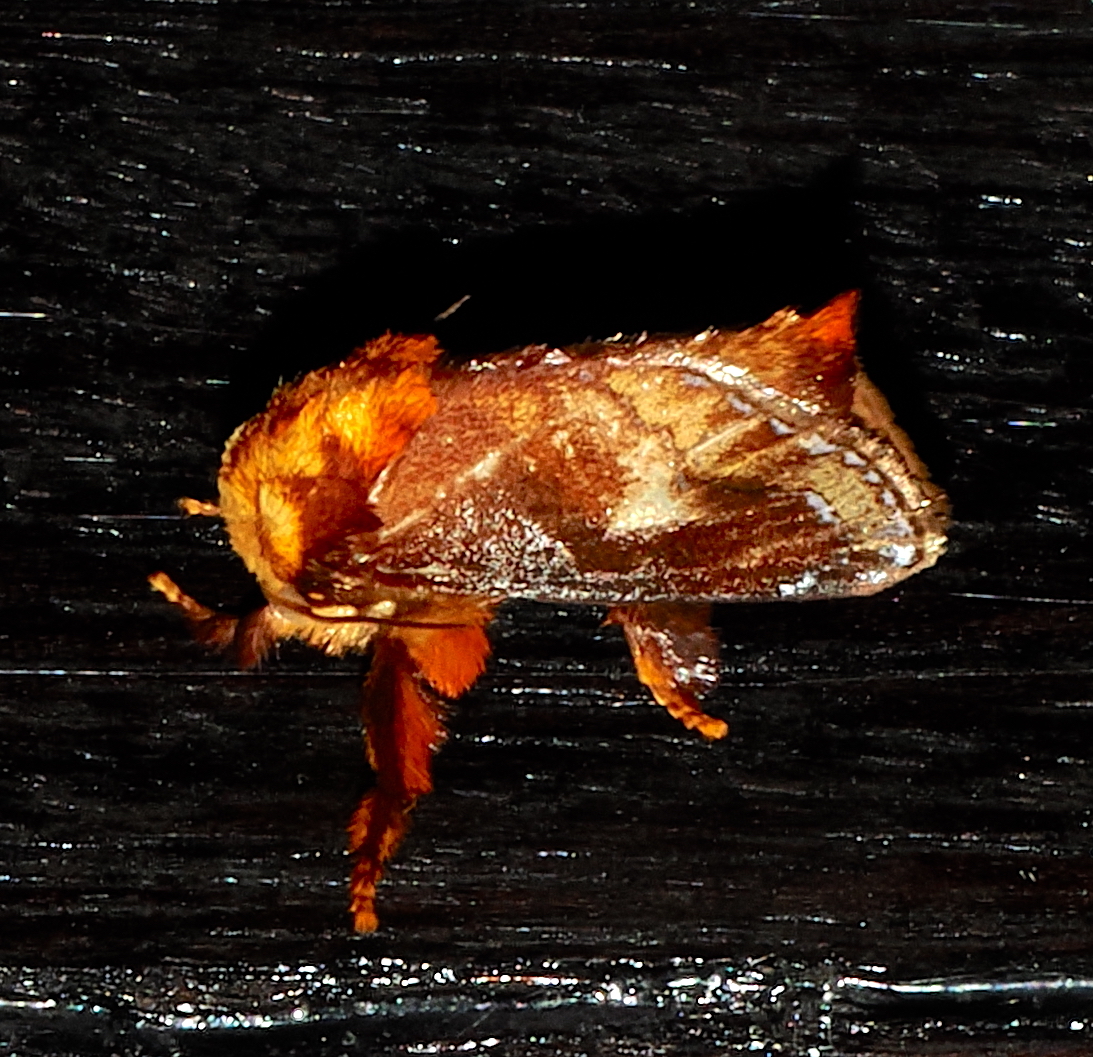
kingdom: Animalia
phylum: Arthropoda
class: Insecta
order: Lepidoptera
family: Limacodidae
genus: Miresa
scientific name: Miresa clarissa
